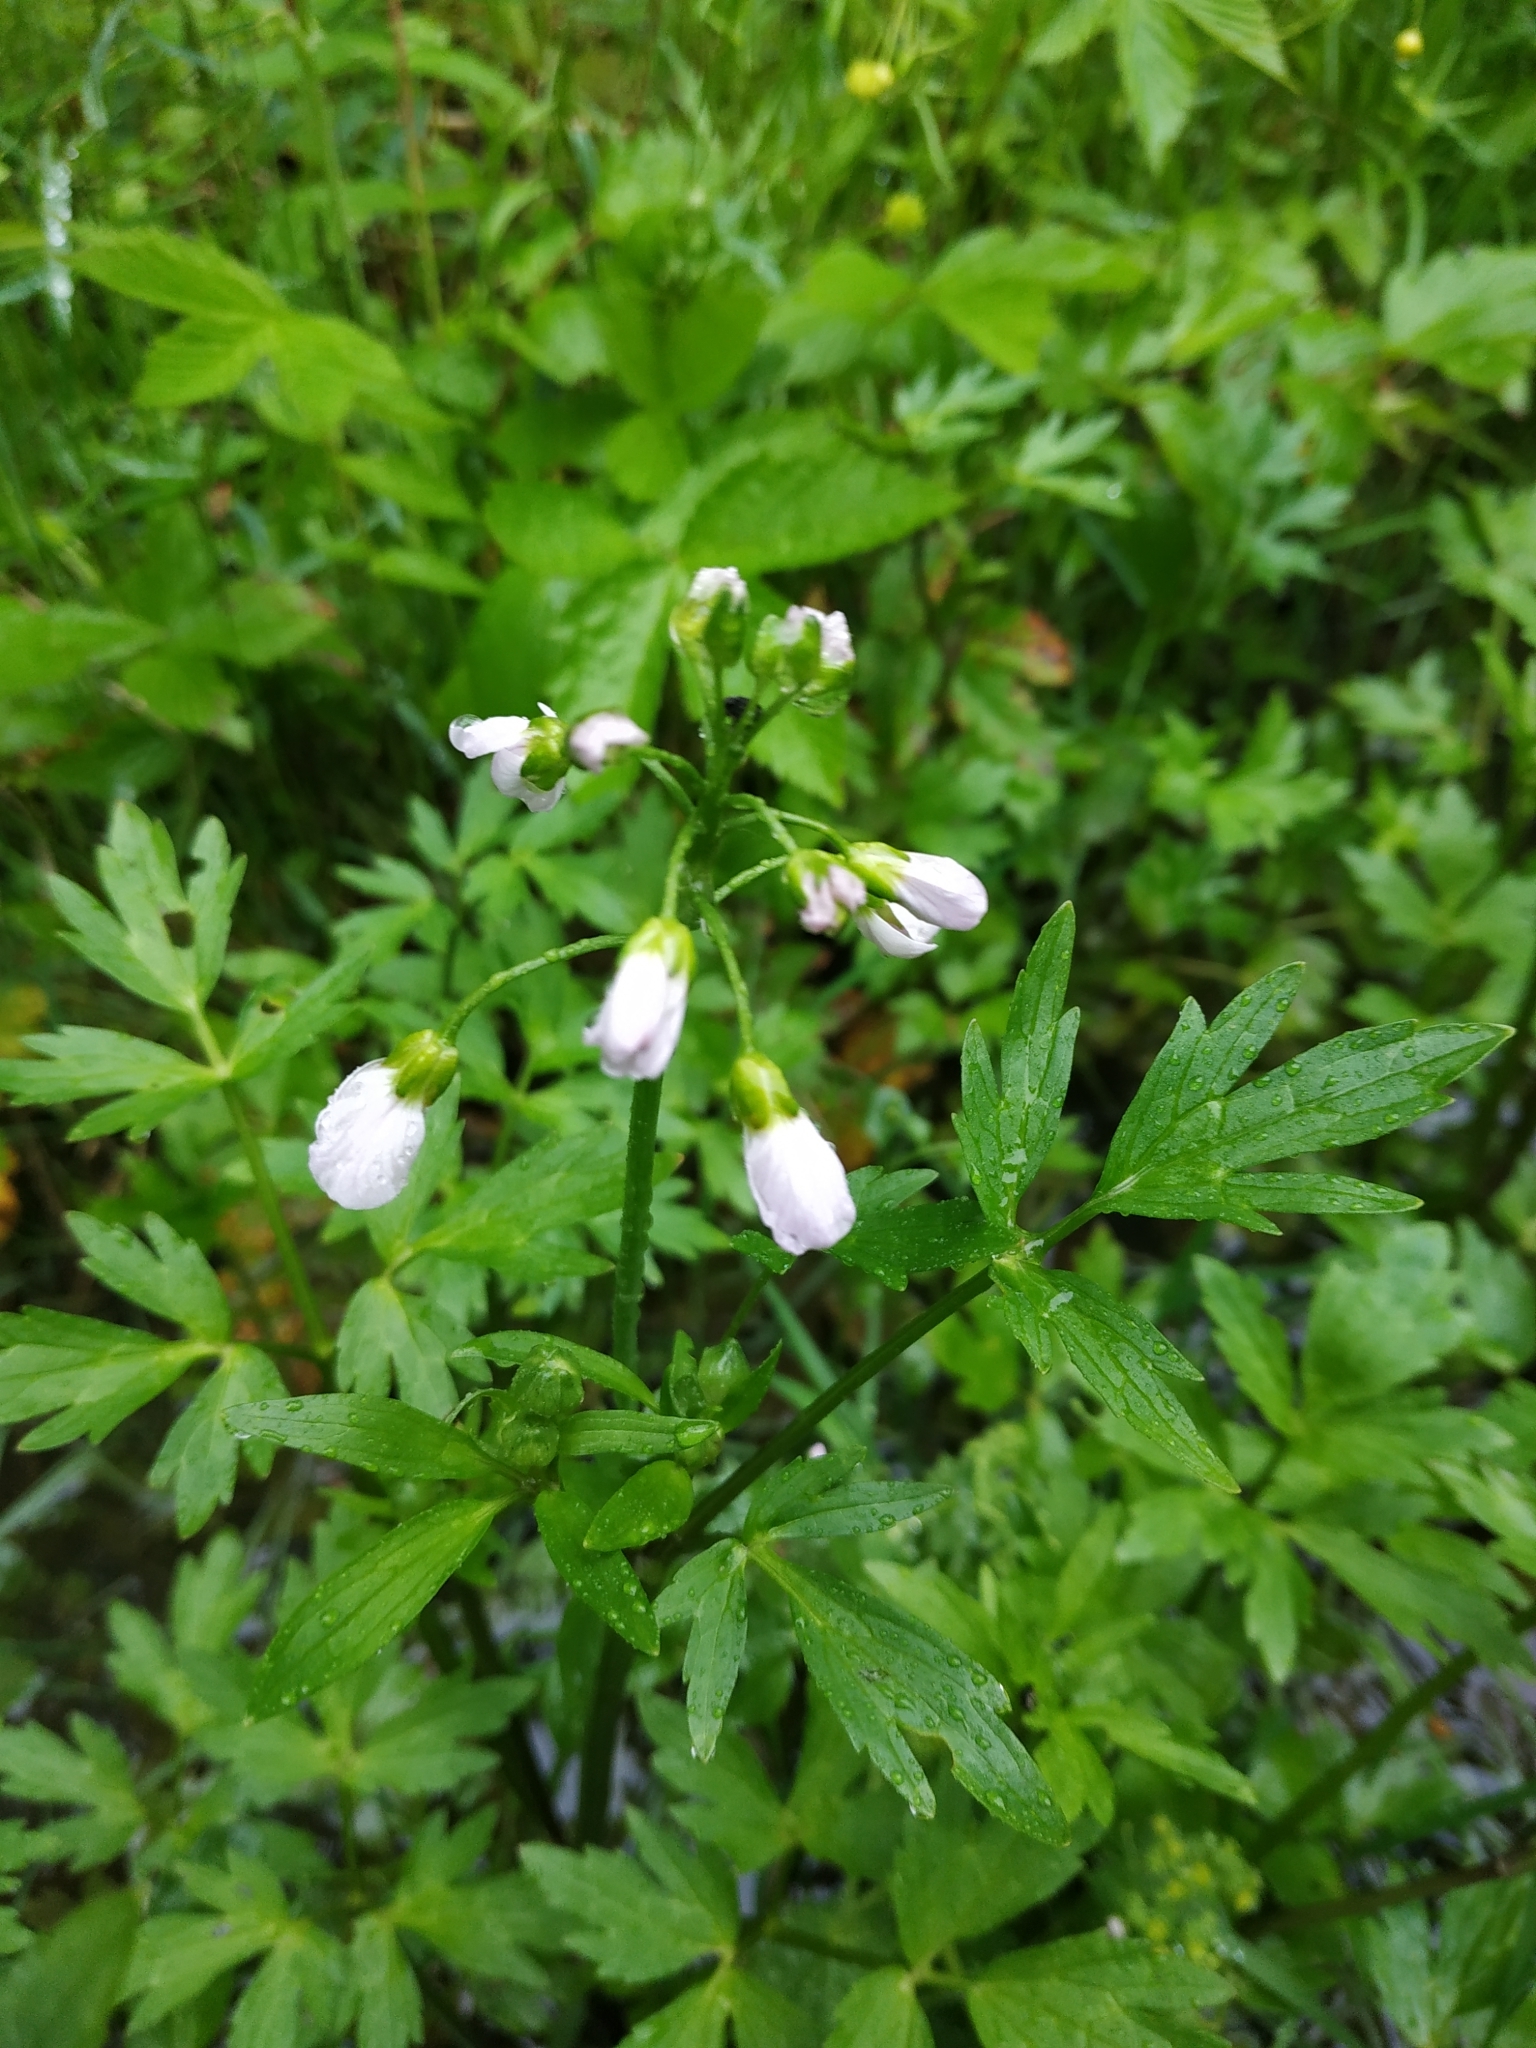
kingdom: Plantae
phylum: Tracheophyta
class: Magnoliopsida
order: Brassicales
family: Brassicaceae
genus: Cardamine
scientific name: Cardamine dentata
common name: Toothed bittercress
